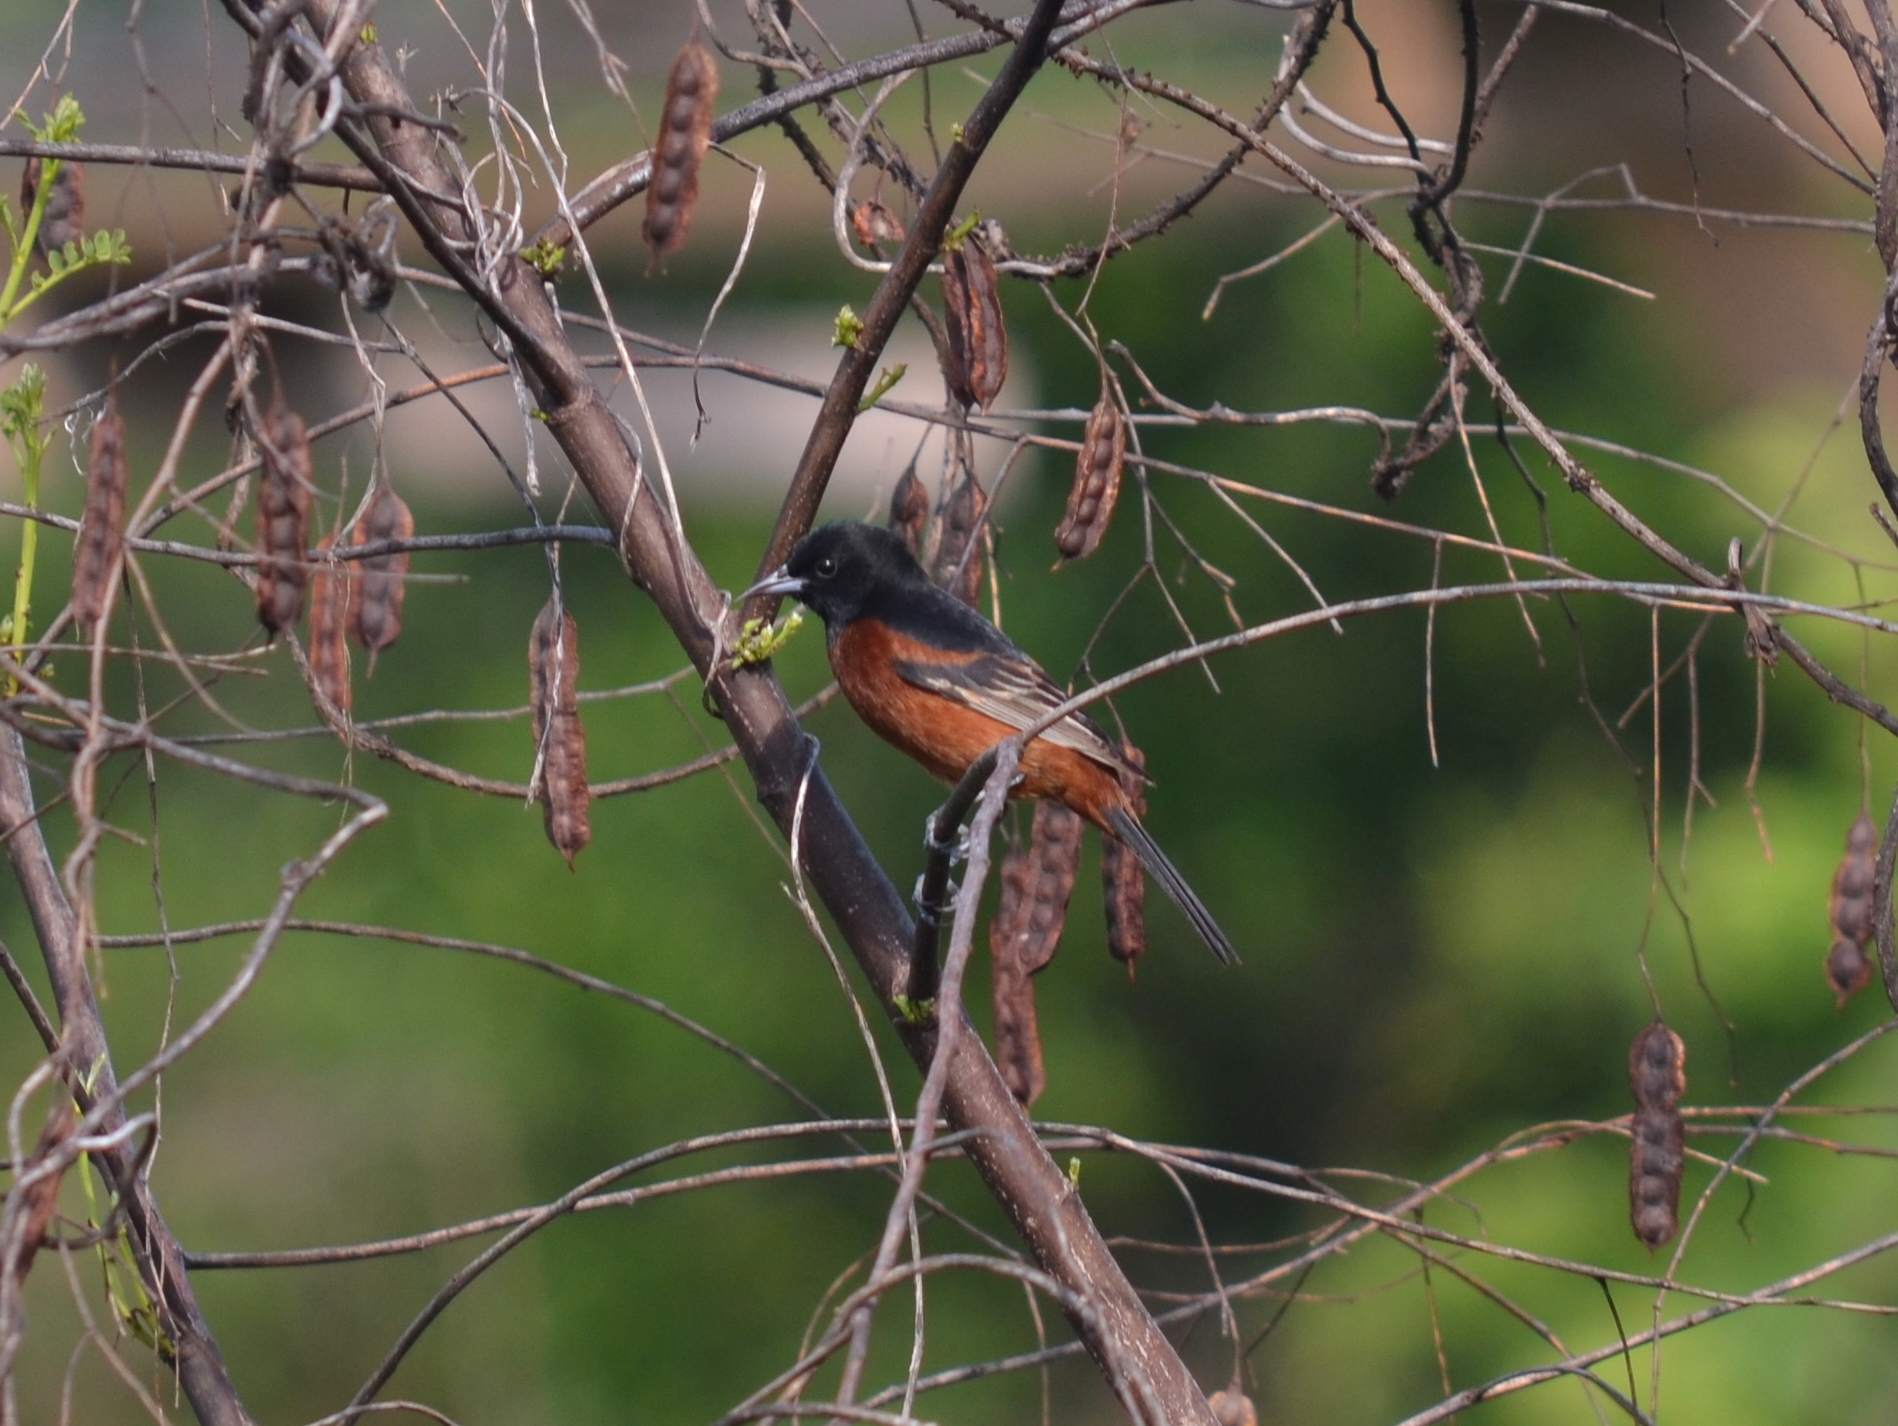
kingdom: Animalia
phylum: Chordata
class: Aves
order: Passeriformes
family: Icteridae
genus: Icterus
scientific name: Icterus spurius
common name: Orchard oriole
